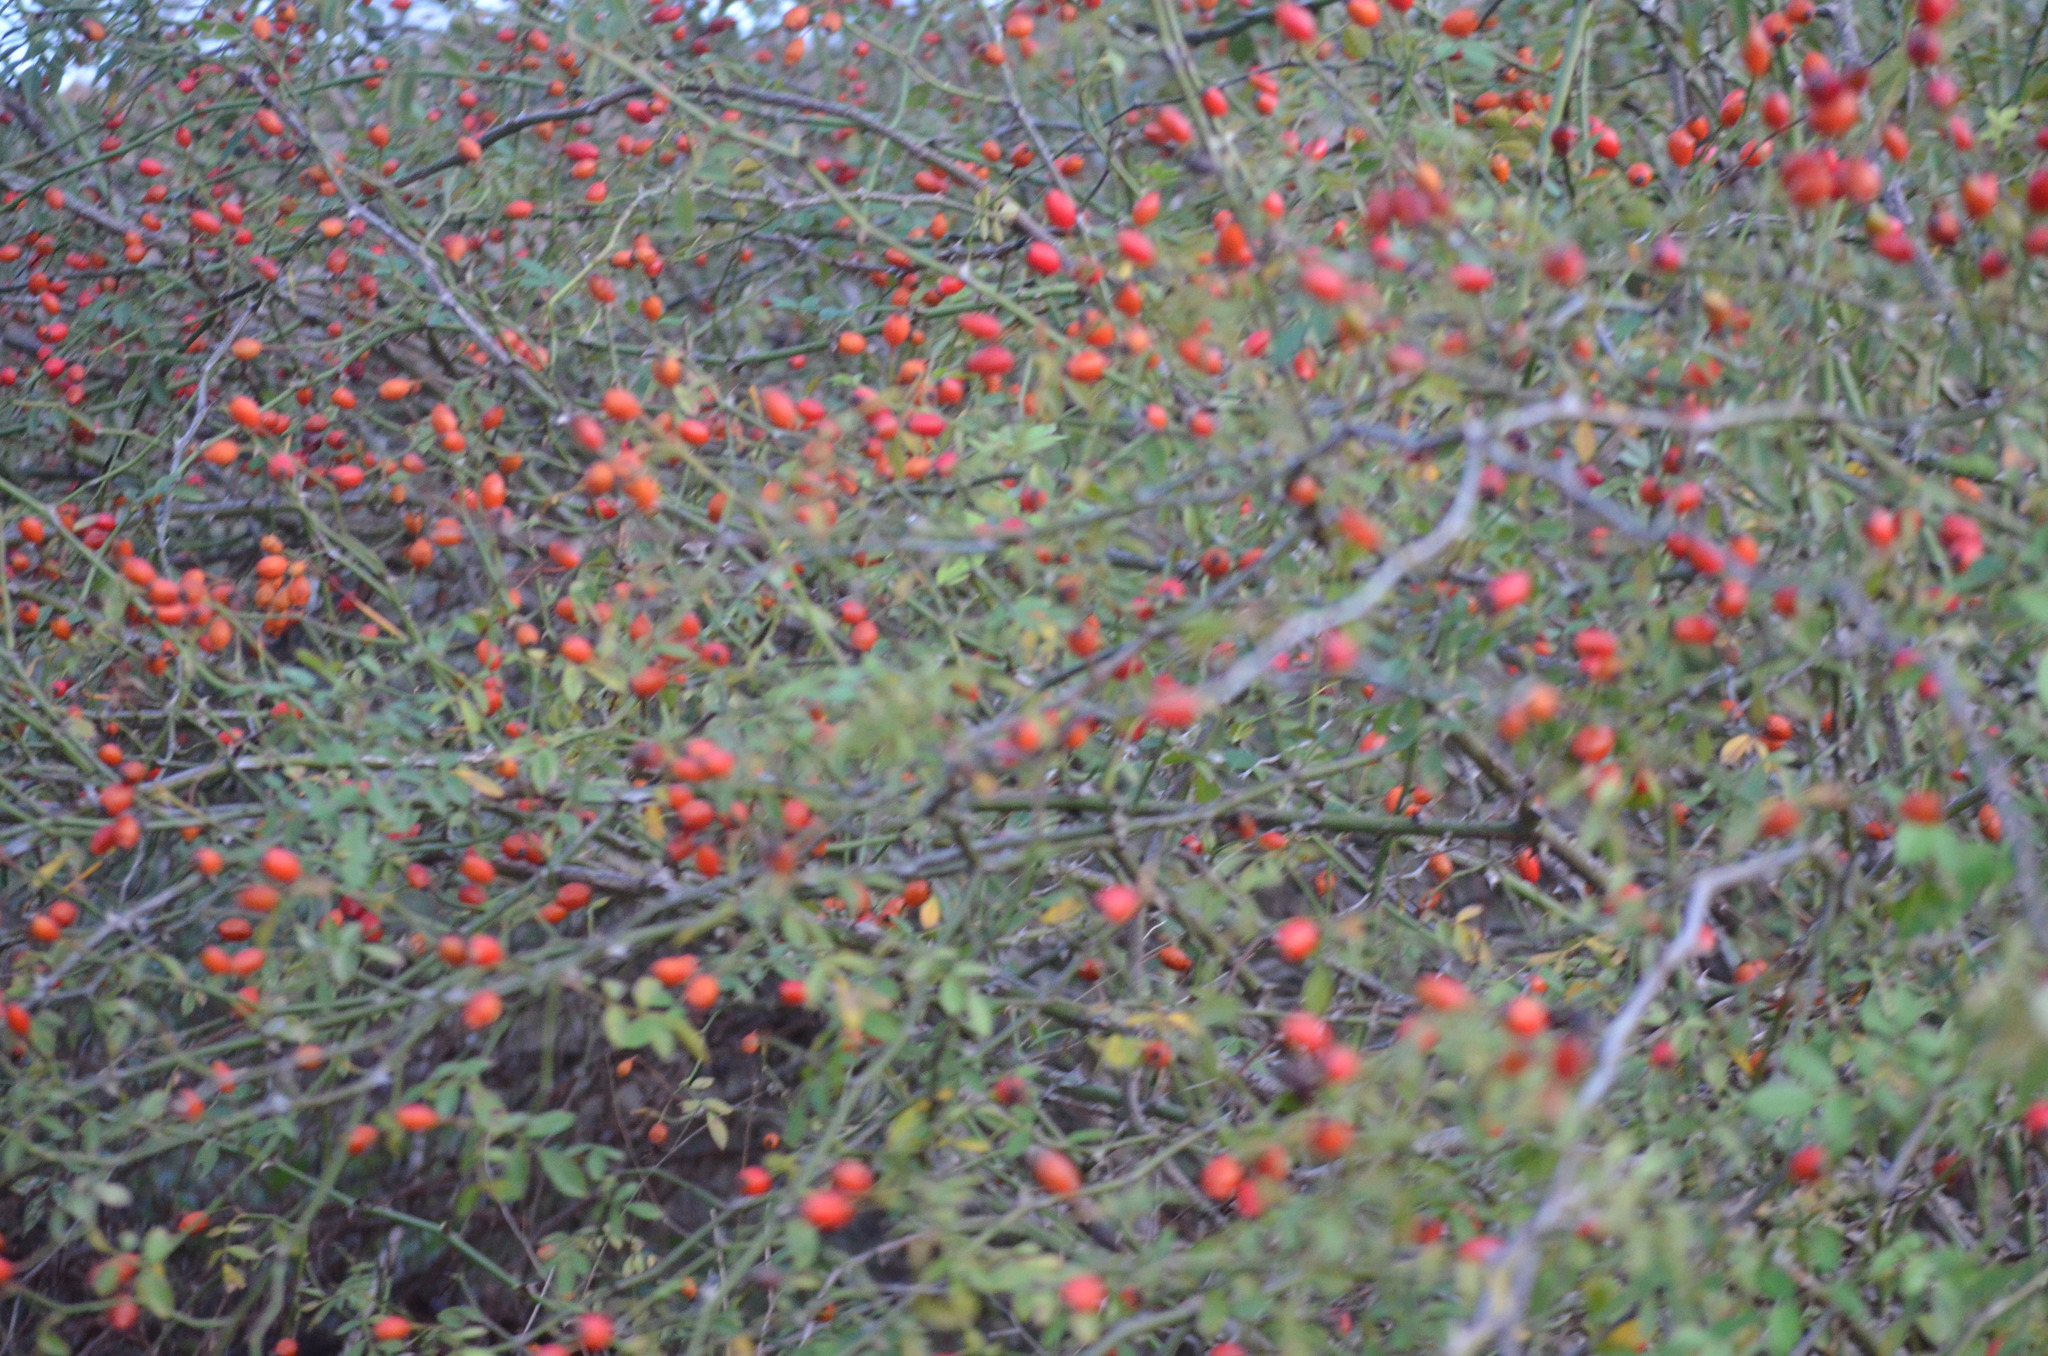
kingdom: Plantae
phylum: Tracheophyta
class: Magnoliopsida
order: Rosales
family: Rosaceae
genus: Rosa
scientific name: Rosa canina
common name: Dog rose
